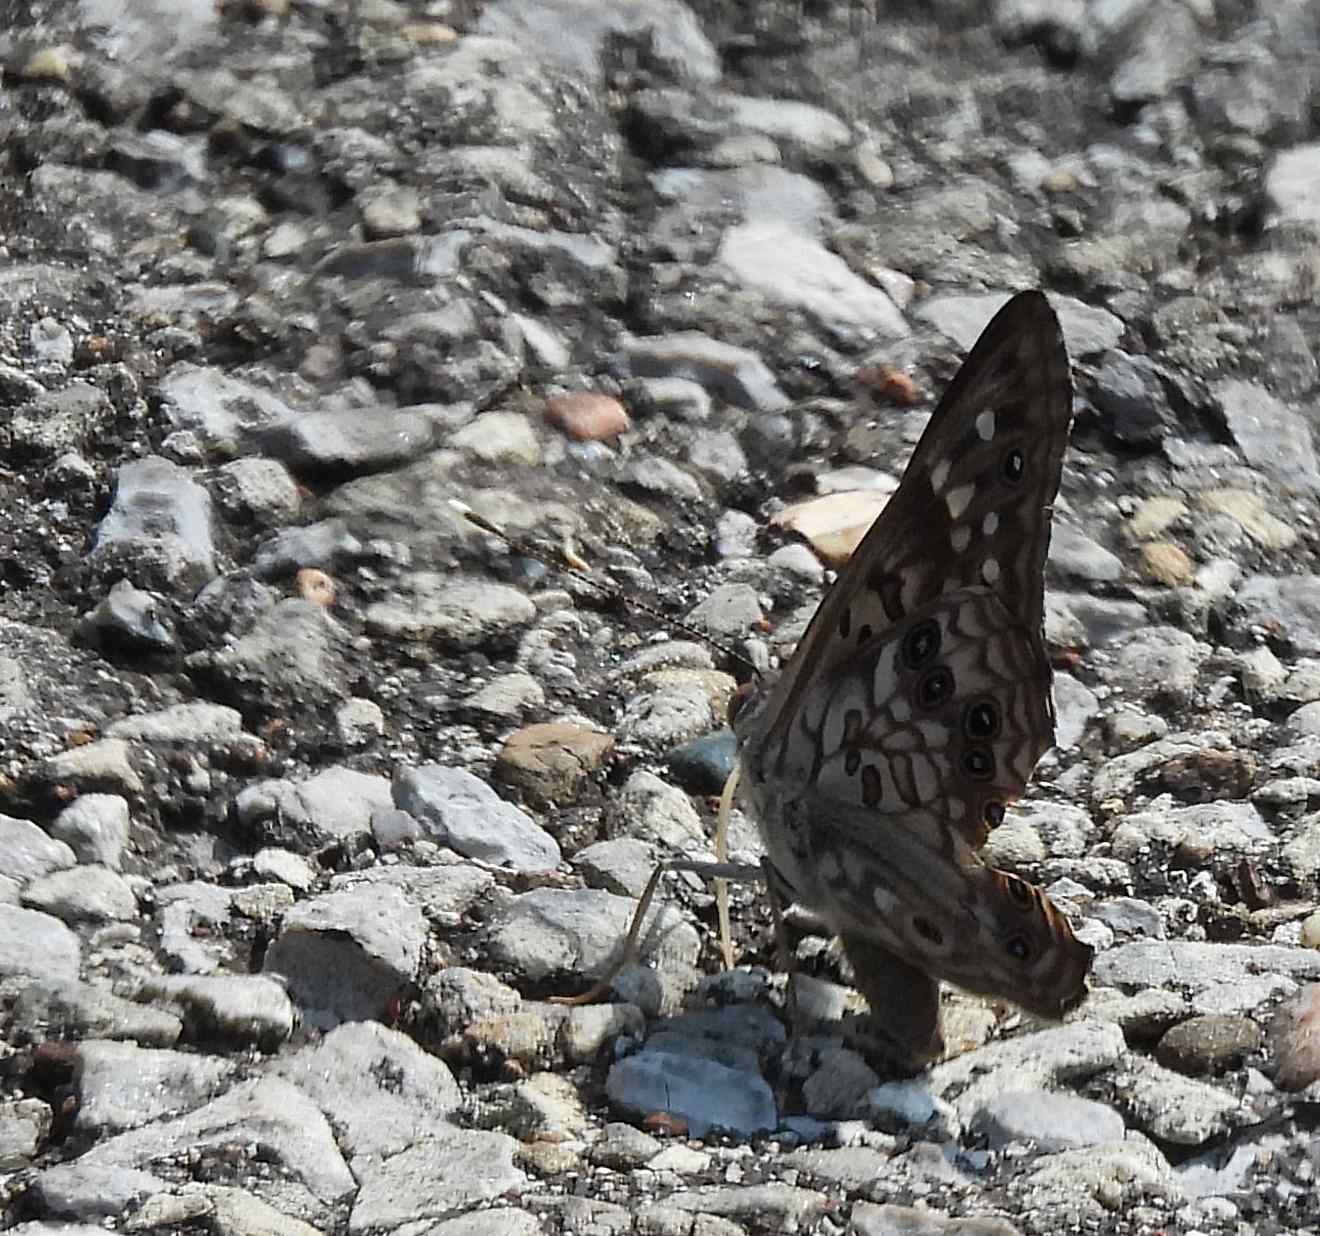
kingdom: Animalia
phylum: Arthropoda
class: Insecta
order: Lepidoptera
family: Nymphalidae
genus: Asterocampa
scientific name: Asterocampa celtis
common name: Hackberry emperor
